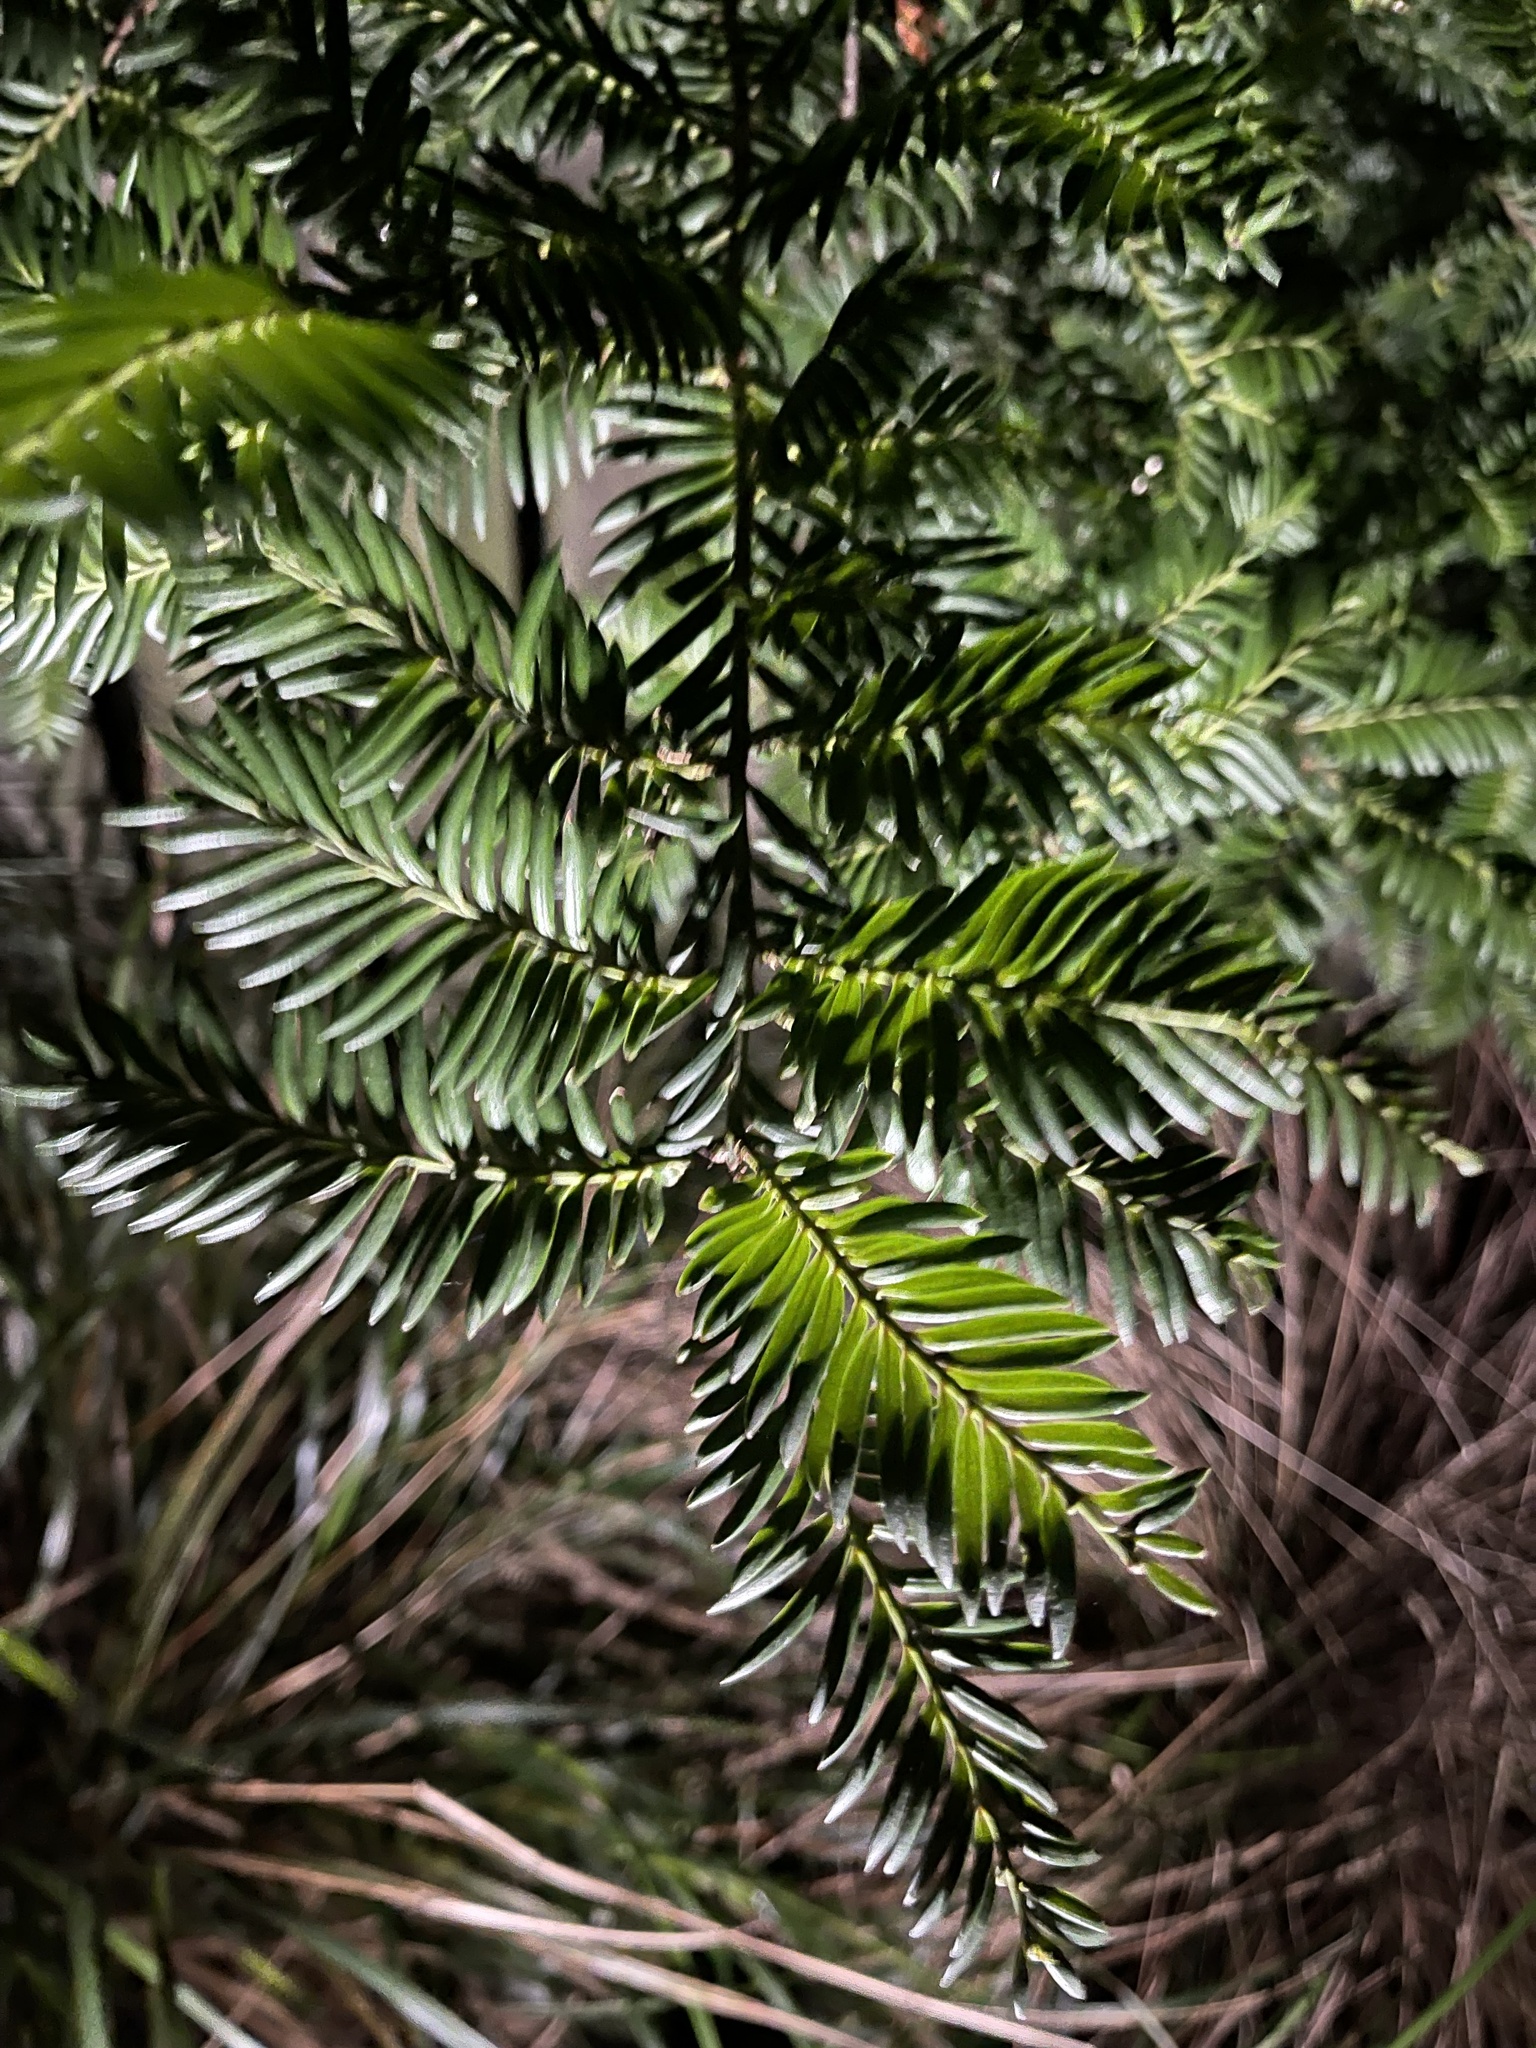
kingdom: Plantae
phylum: Tracheophyta
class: Pinopsida
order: Pinales
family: Podocarpaceae
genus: Prumnopitys
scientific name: Prumnopitys ferruginea
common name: Brown pine
